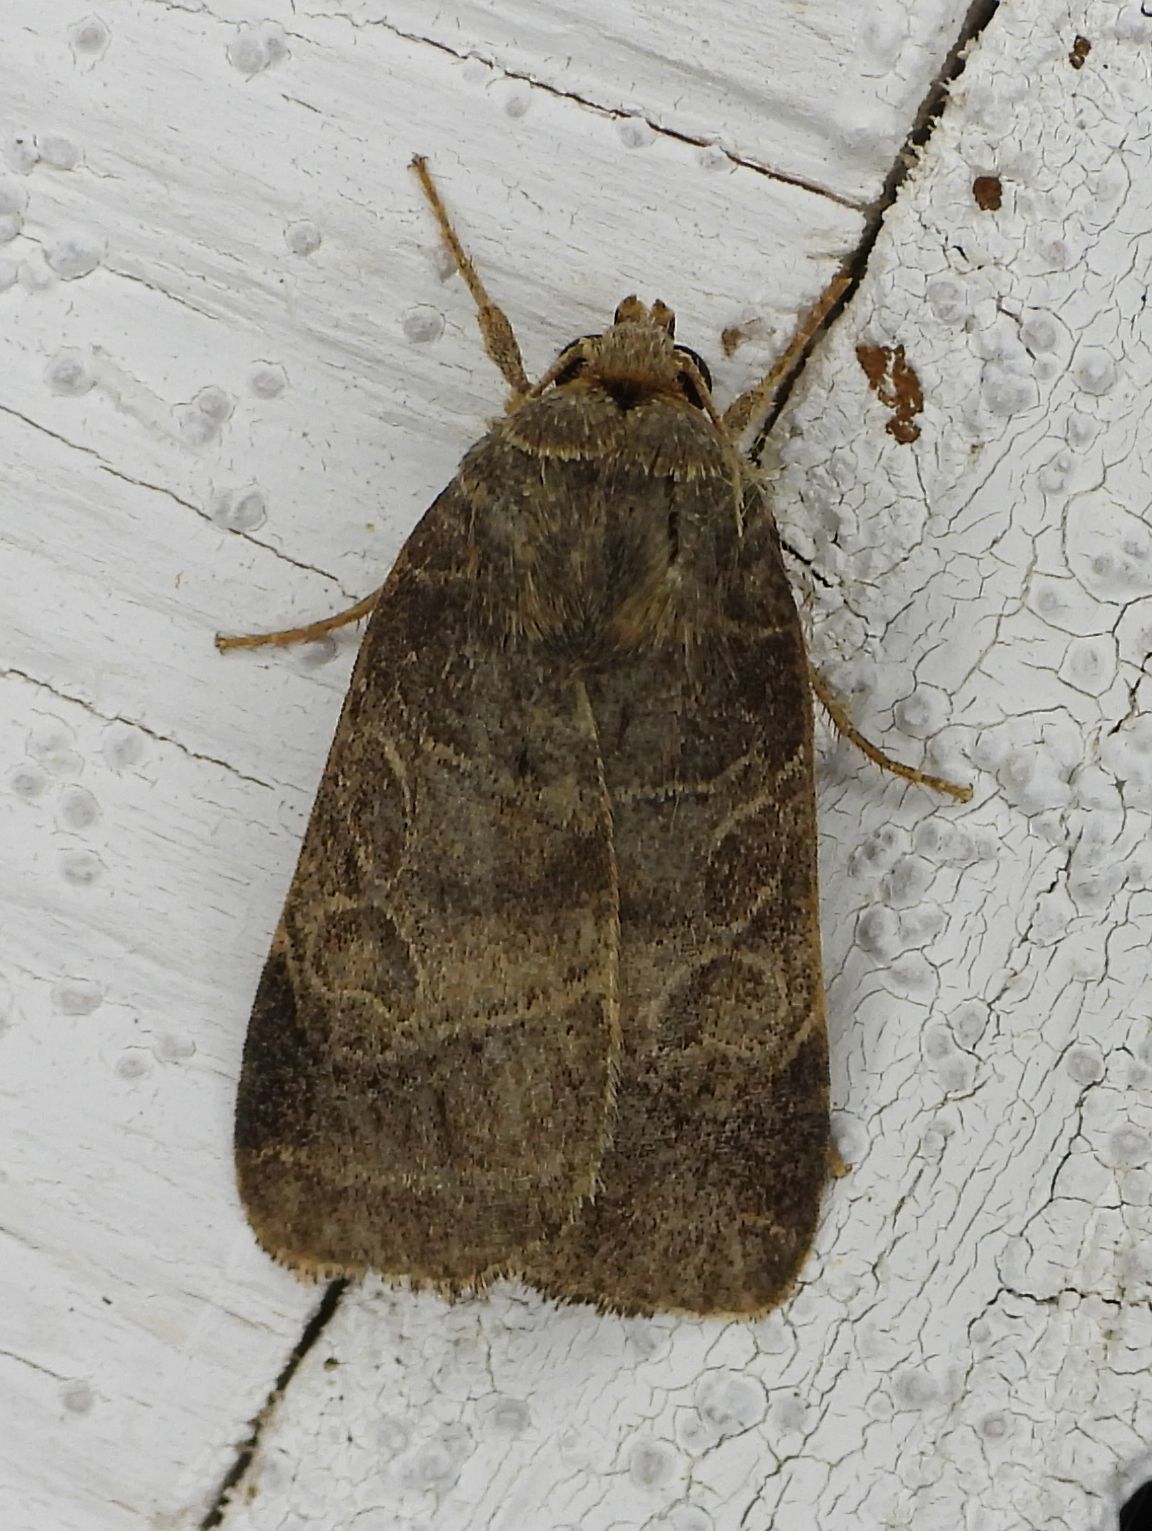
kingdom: Animalia
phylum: Arthropoda
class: Insecta
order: Lepidoptera
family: Noctuidae
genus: Orthodes
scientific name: Orthodes majuscula
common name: Rustic quaker
